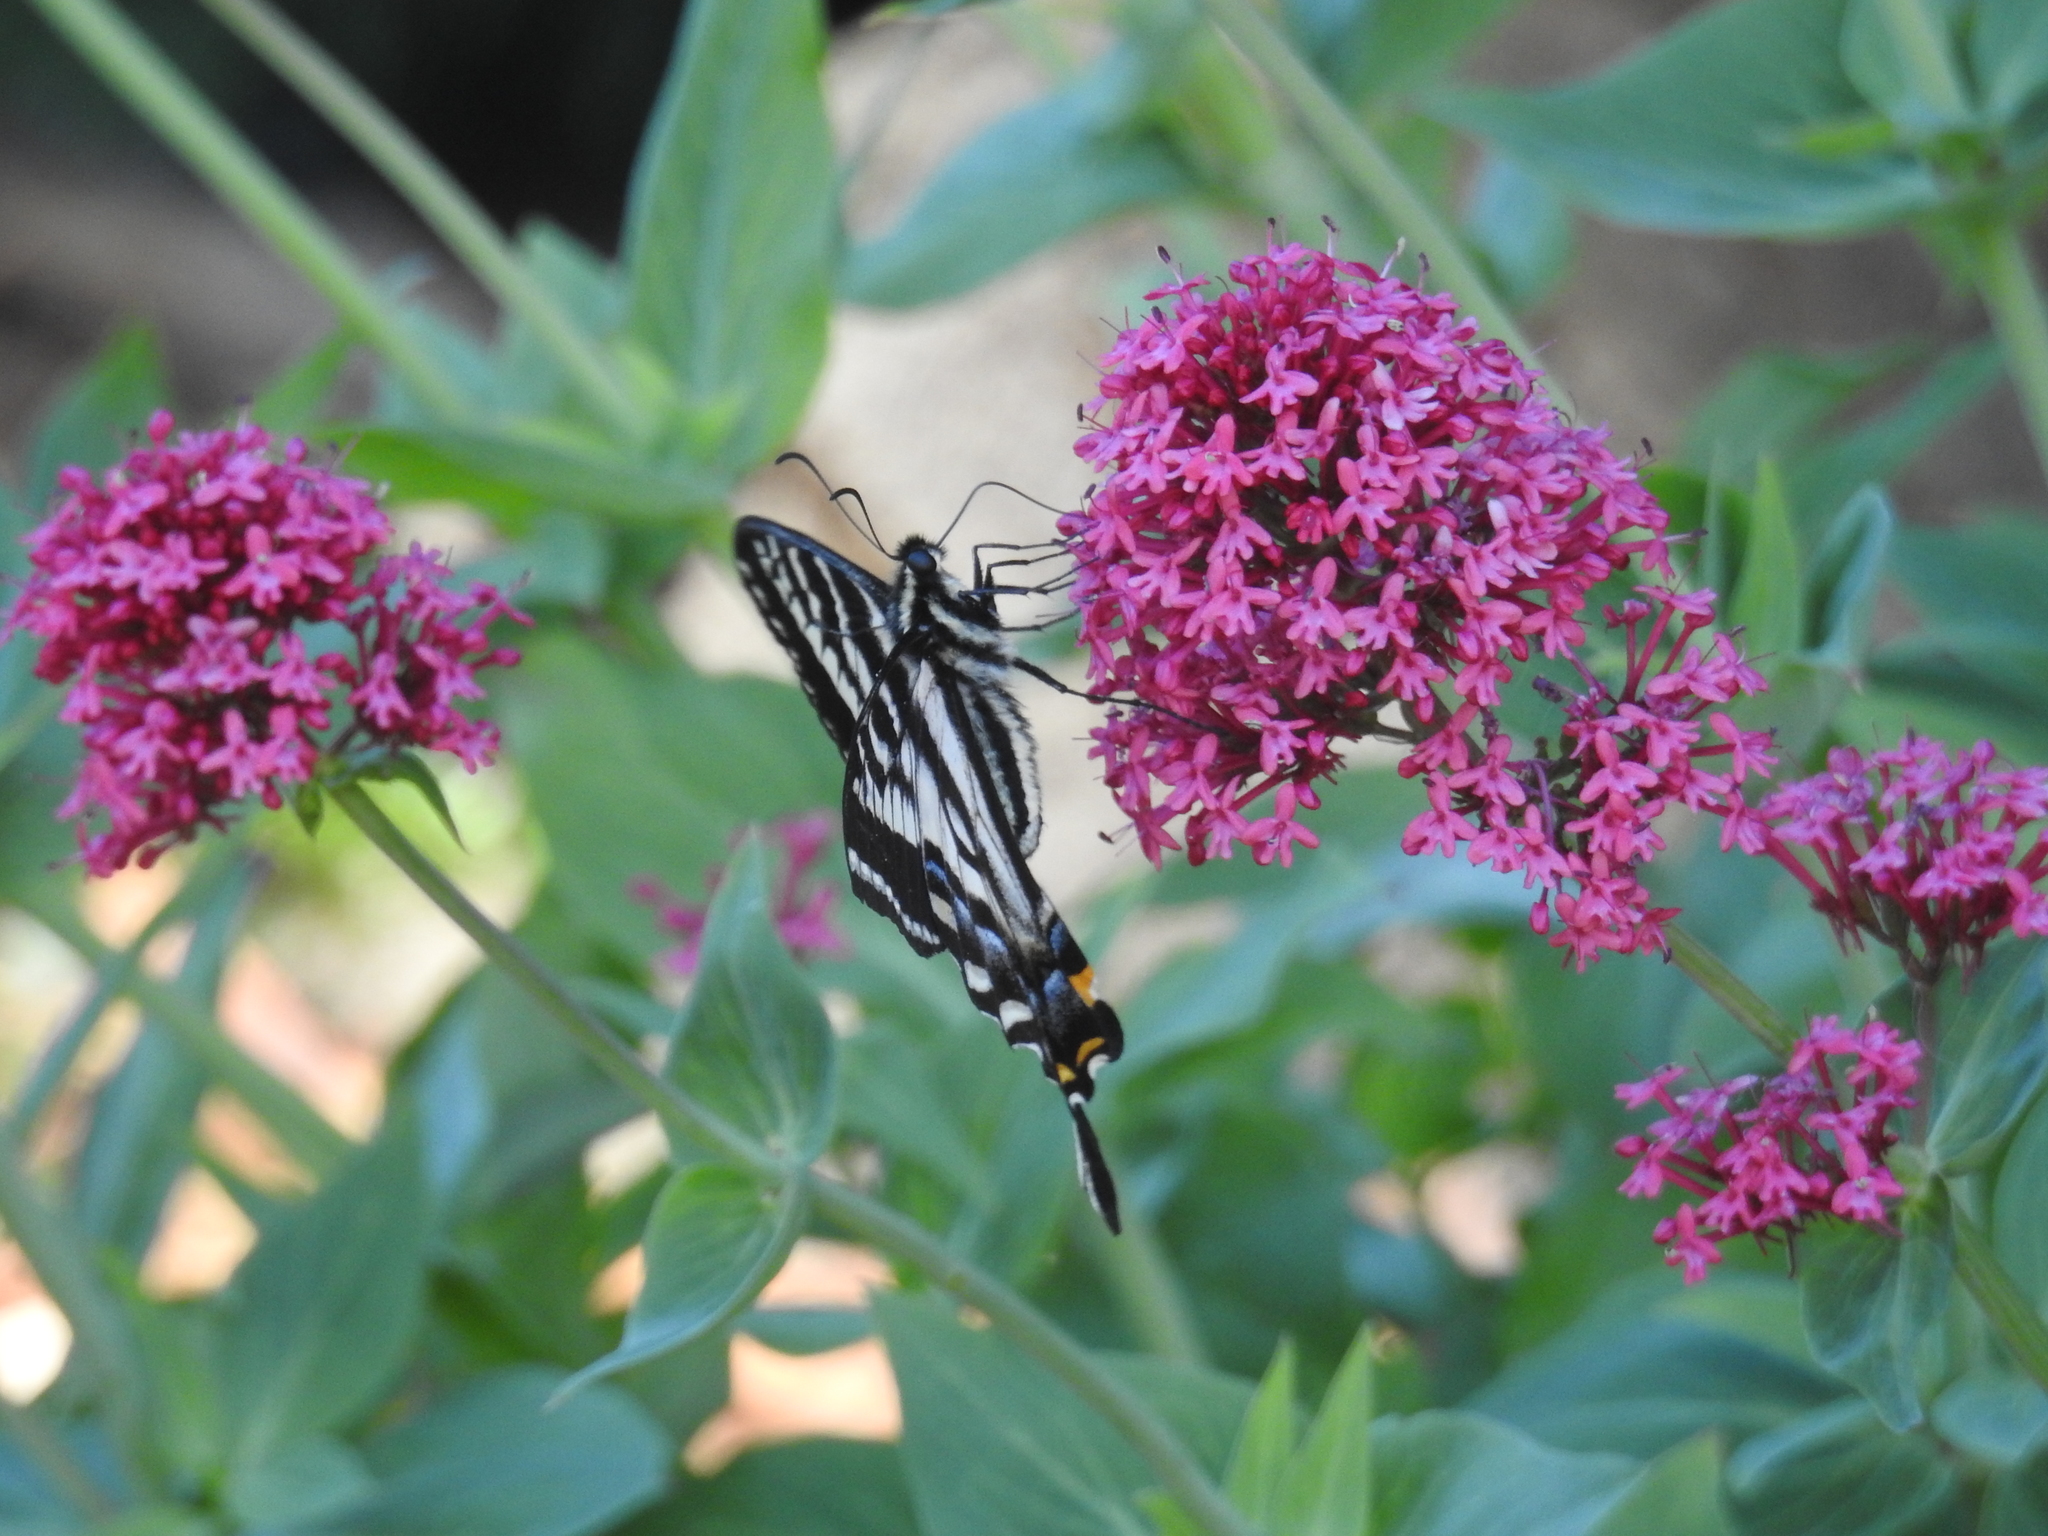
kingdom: Animalia
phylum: Arthropoda
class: Insecta
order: Lepidoptera
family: Papilionidae
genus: Papilio
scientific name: Papilio eurymedon
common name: Pale tiger swallowtail
